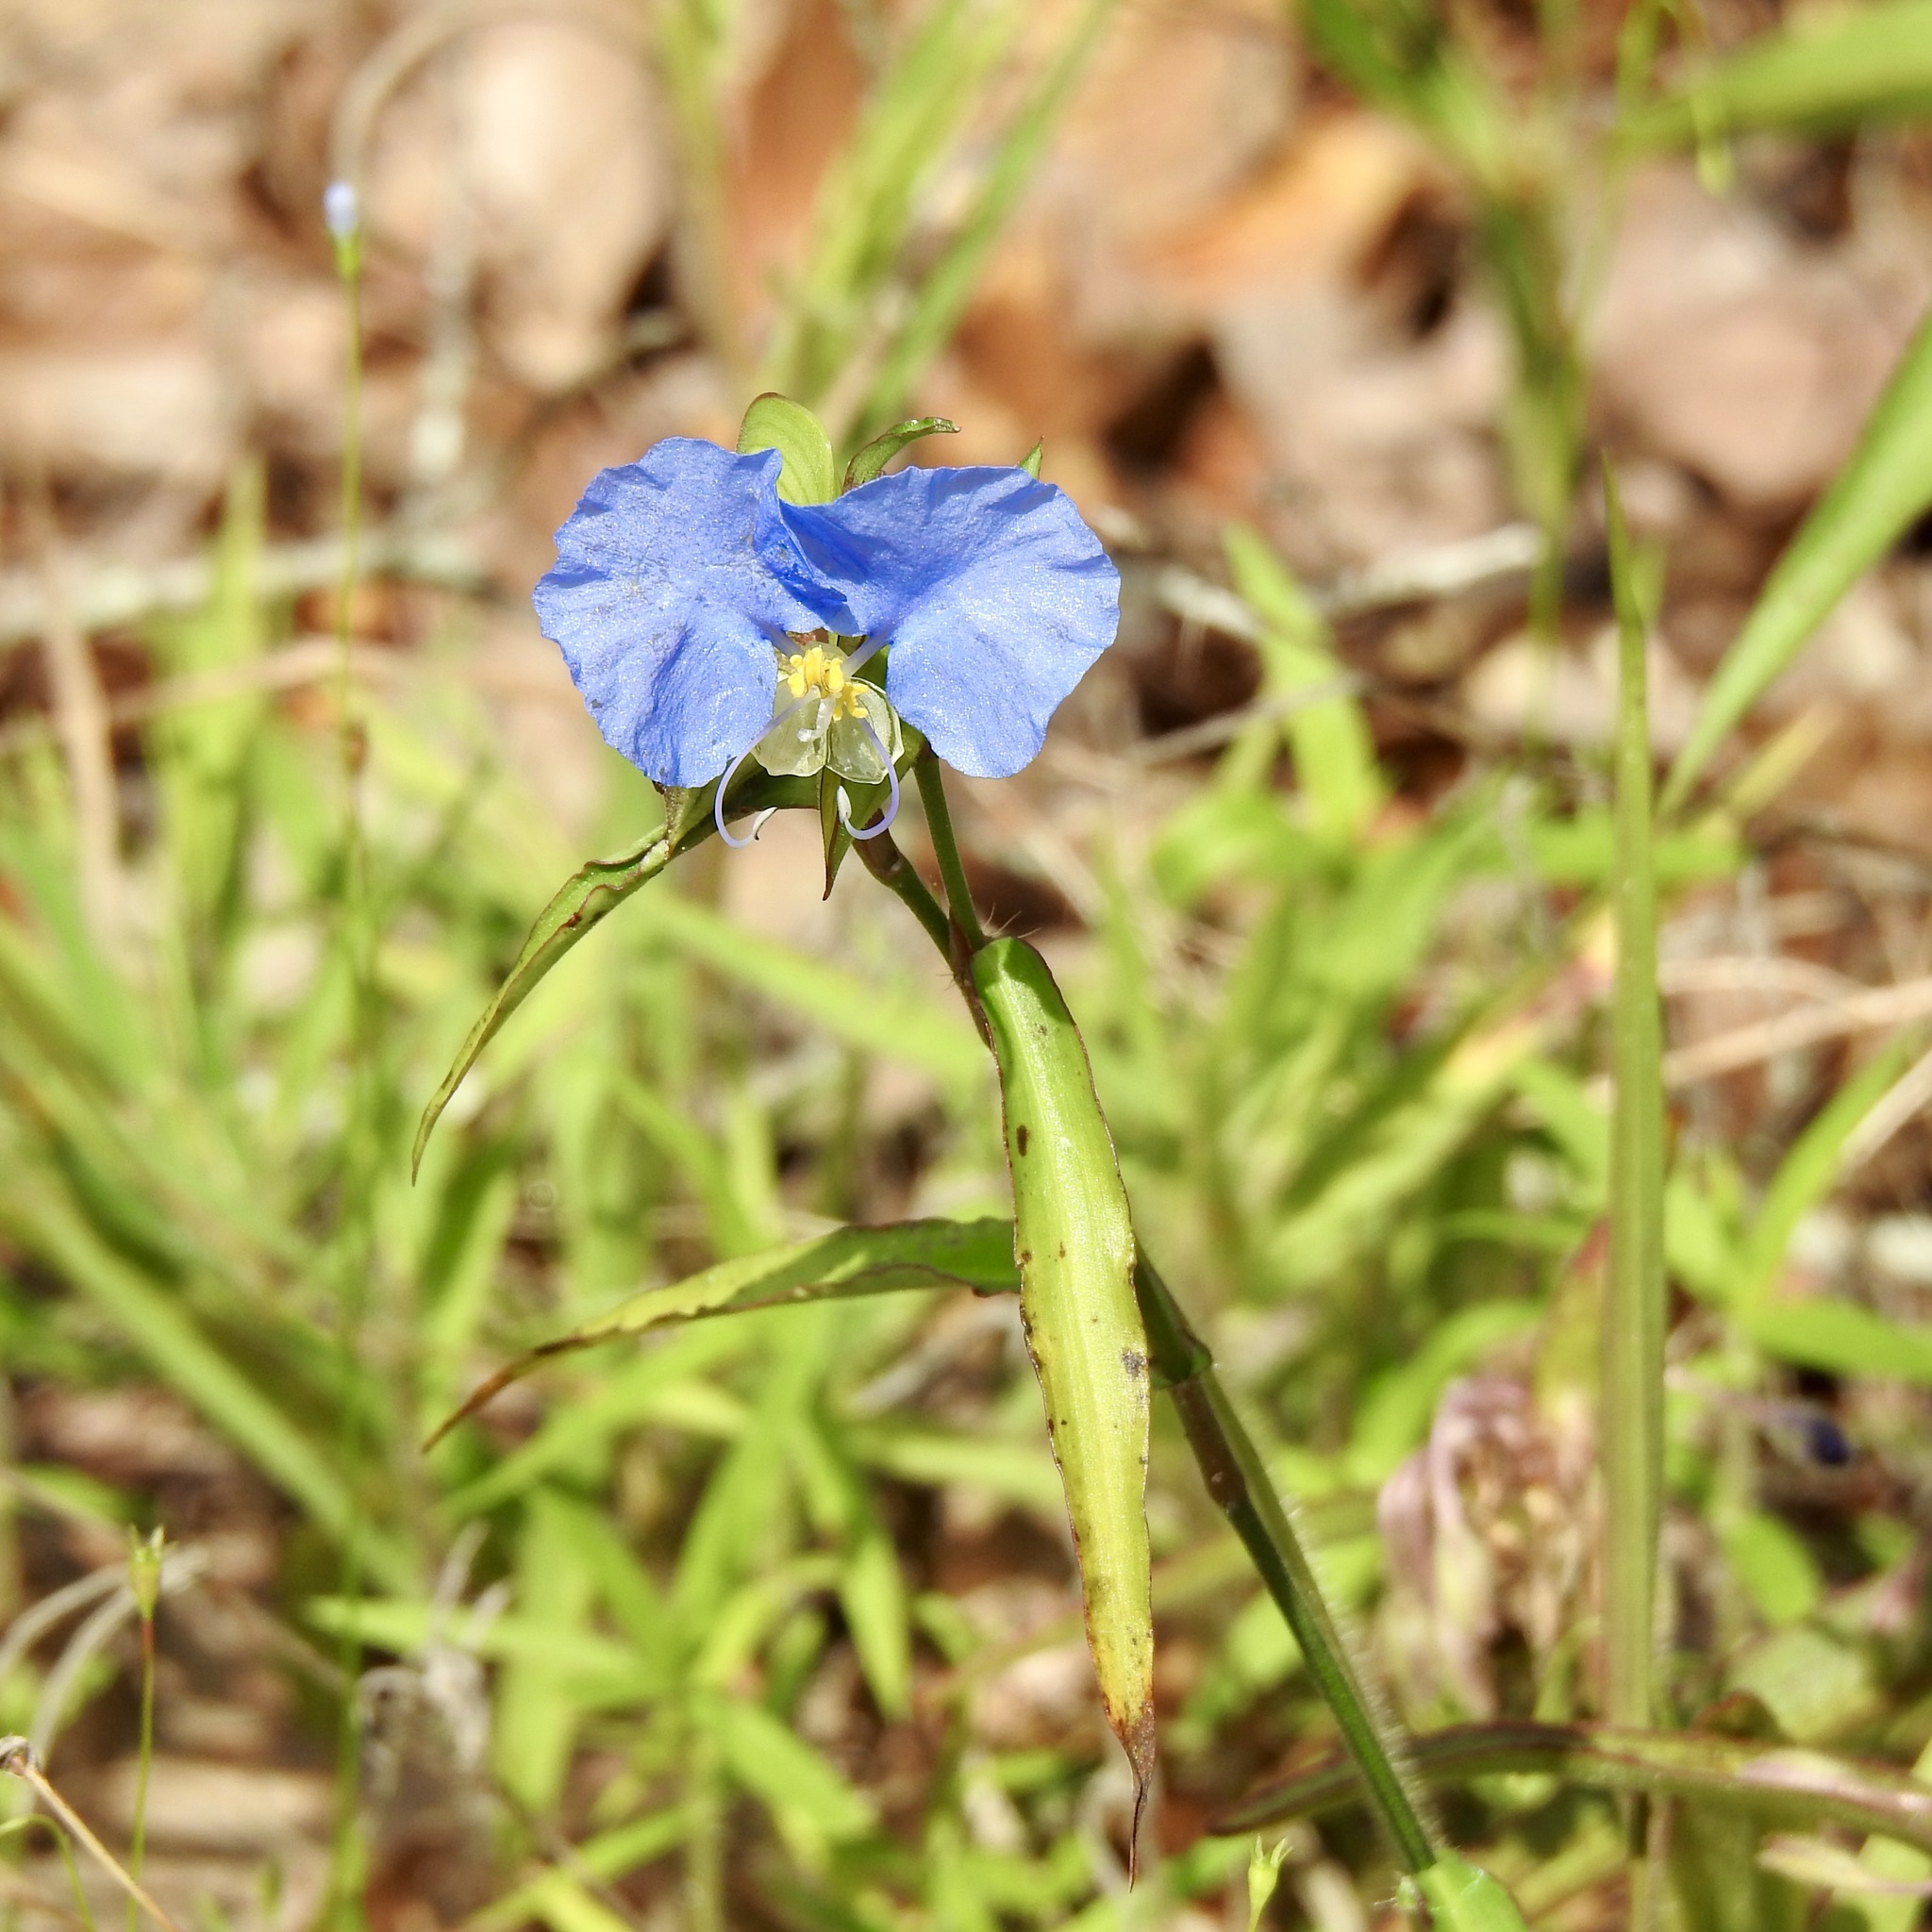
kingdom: Plantae
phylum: Tracheophyta
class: Liliopsida
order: Commelinales
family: Commelinaceae
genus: Commelina
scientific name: Commelina erecta
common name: Blousel blommetjie
